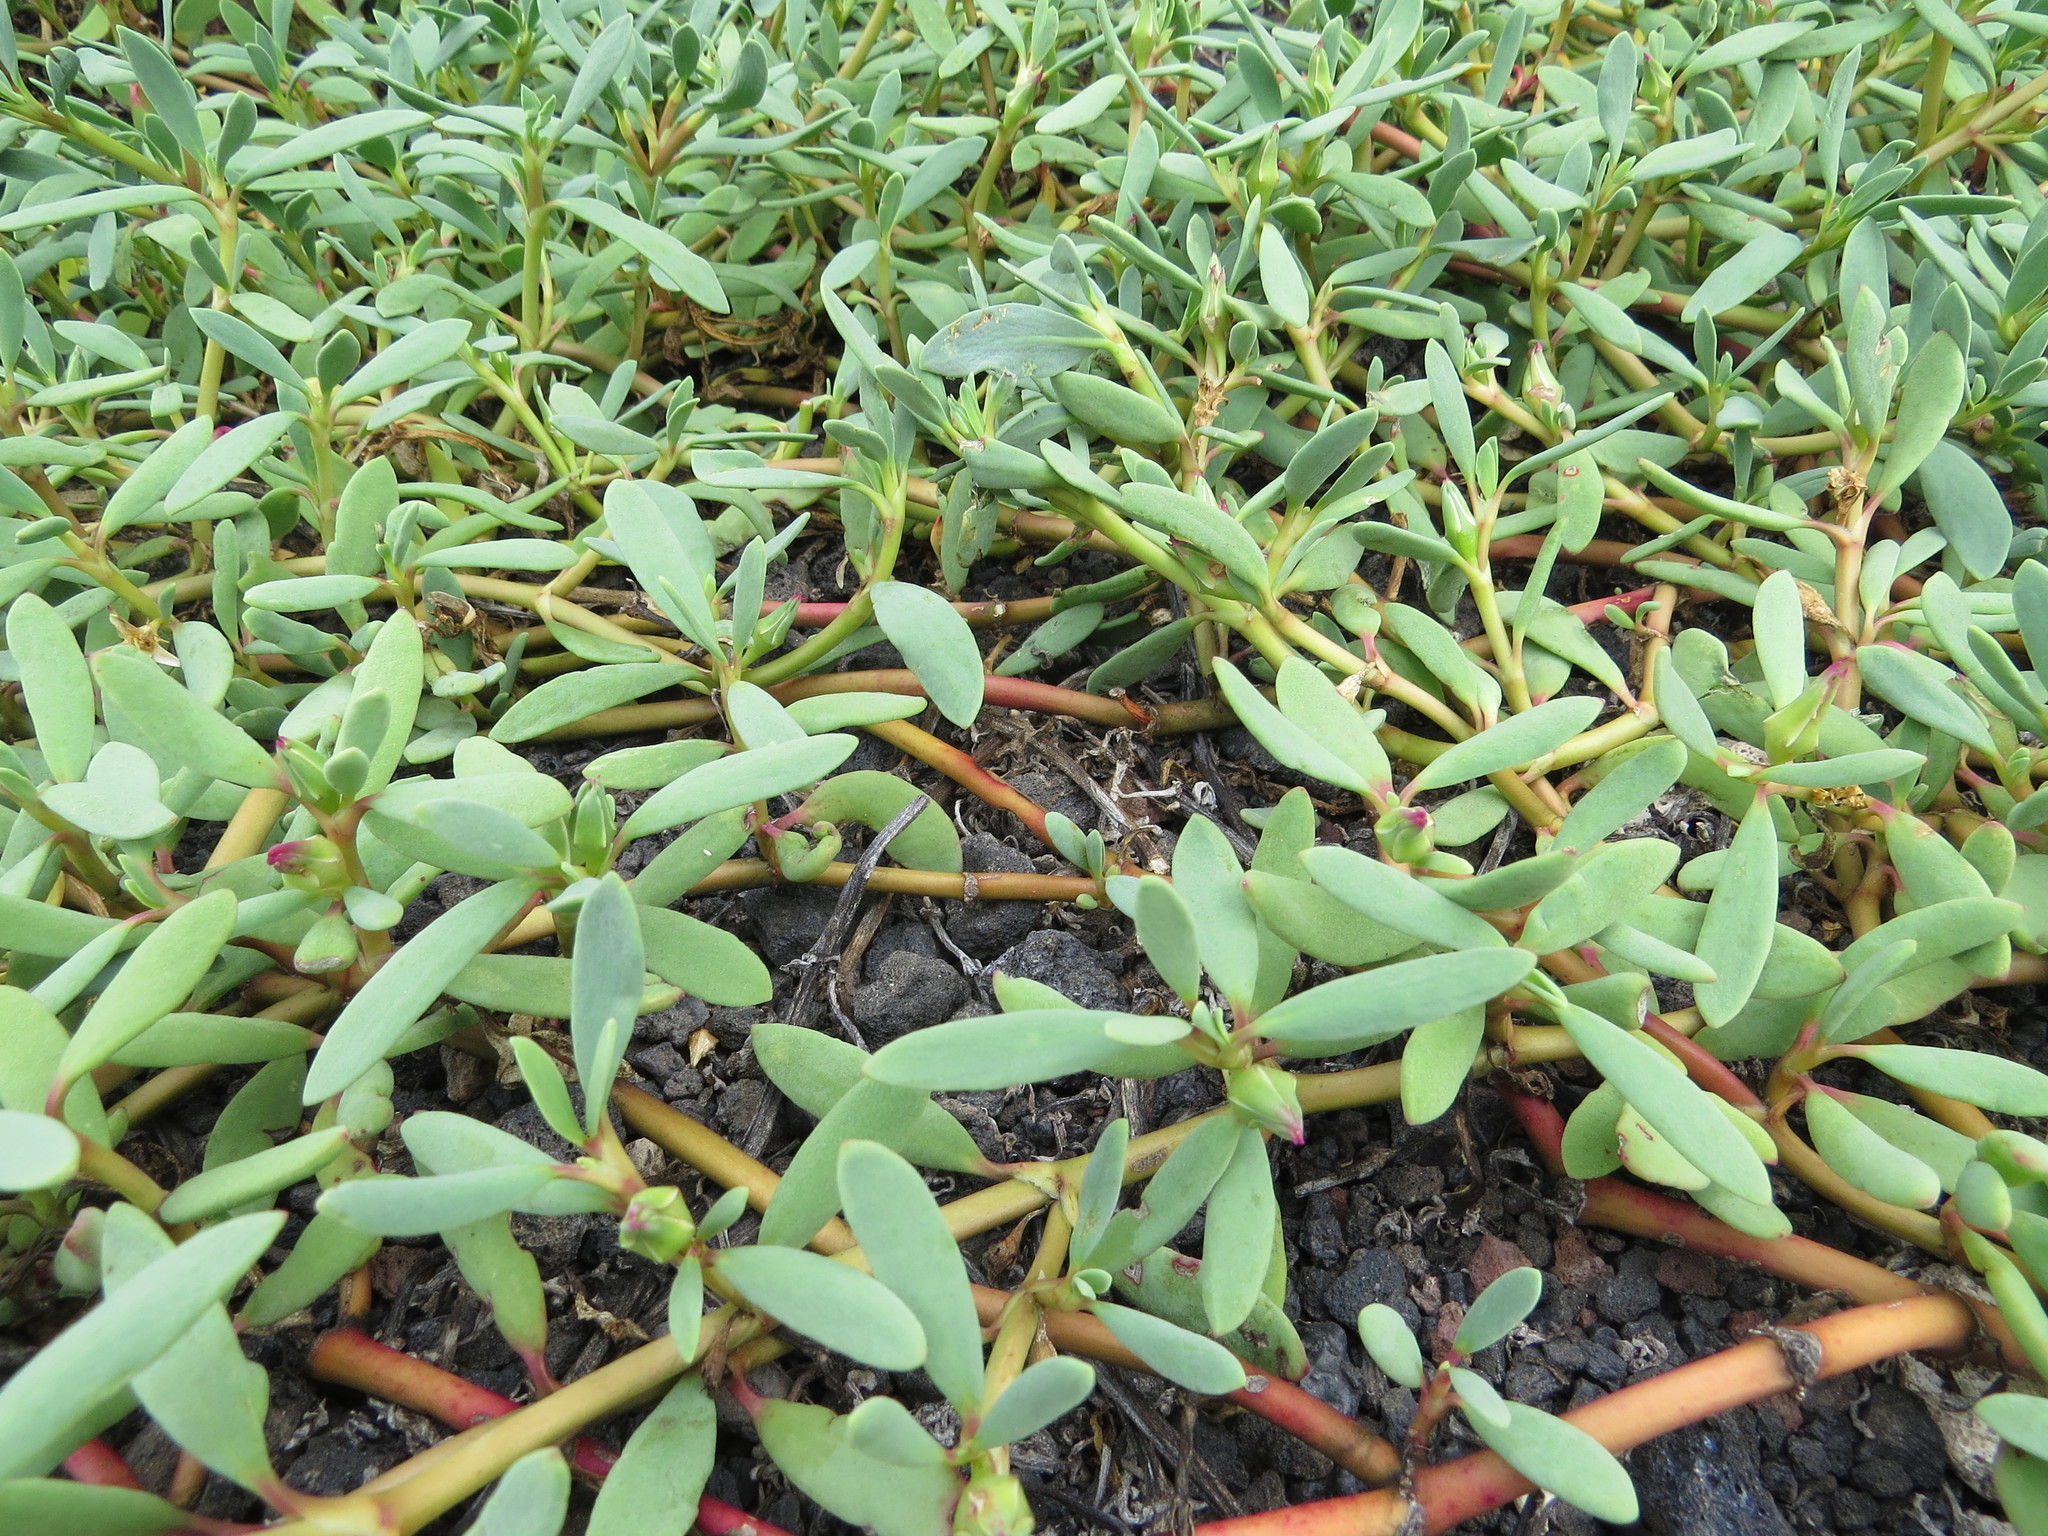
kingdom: Plantae
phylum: Tracheophyta
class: Magnoliopsida
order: Caryophyllales
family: Aizoaceae
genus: Sesuvium
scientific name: Sesuvium portulacastrum
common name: Sea-purslane
